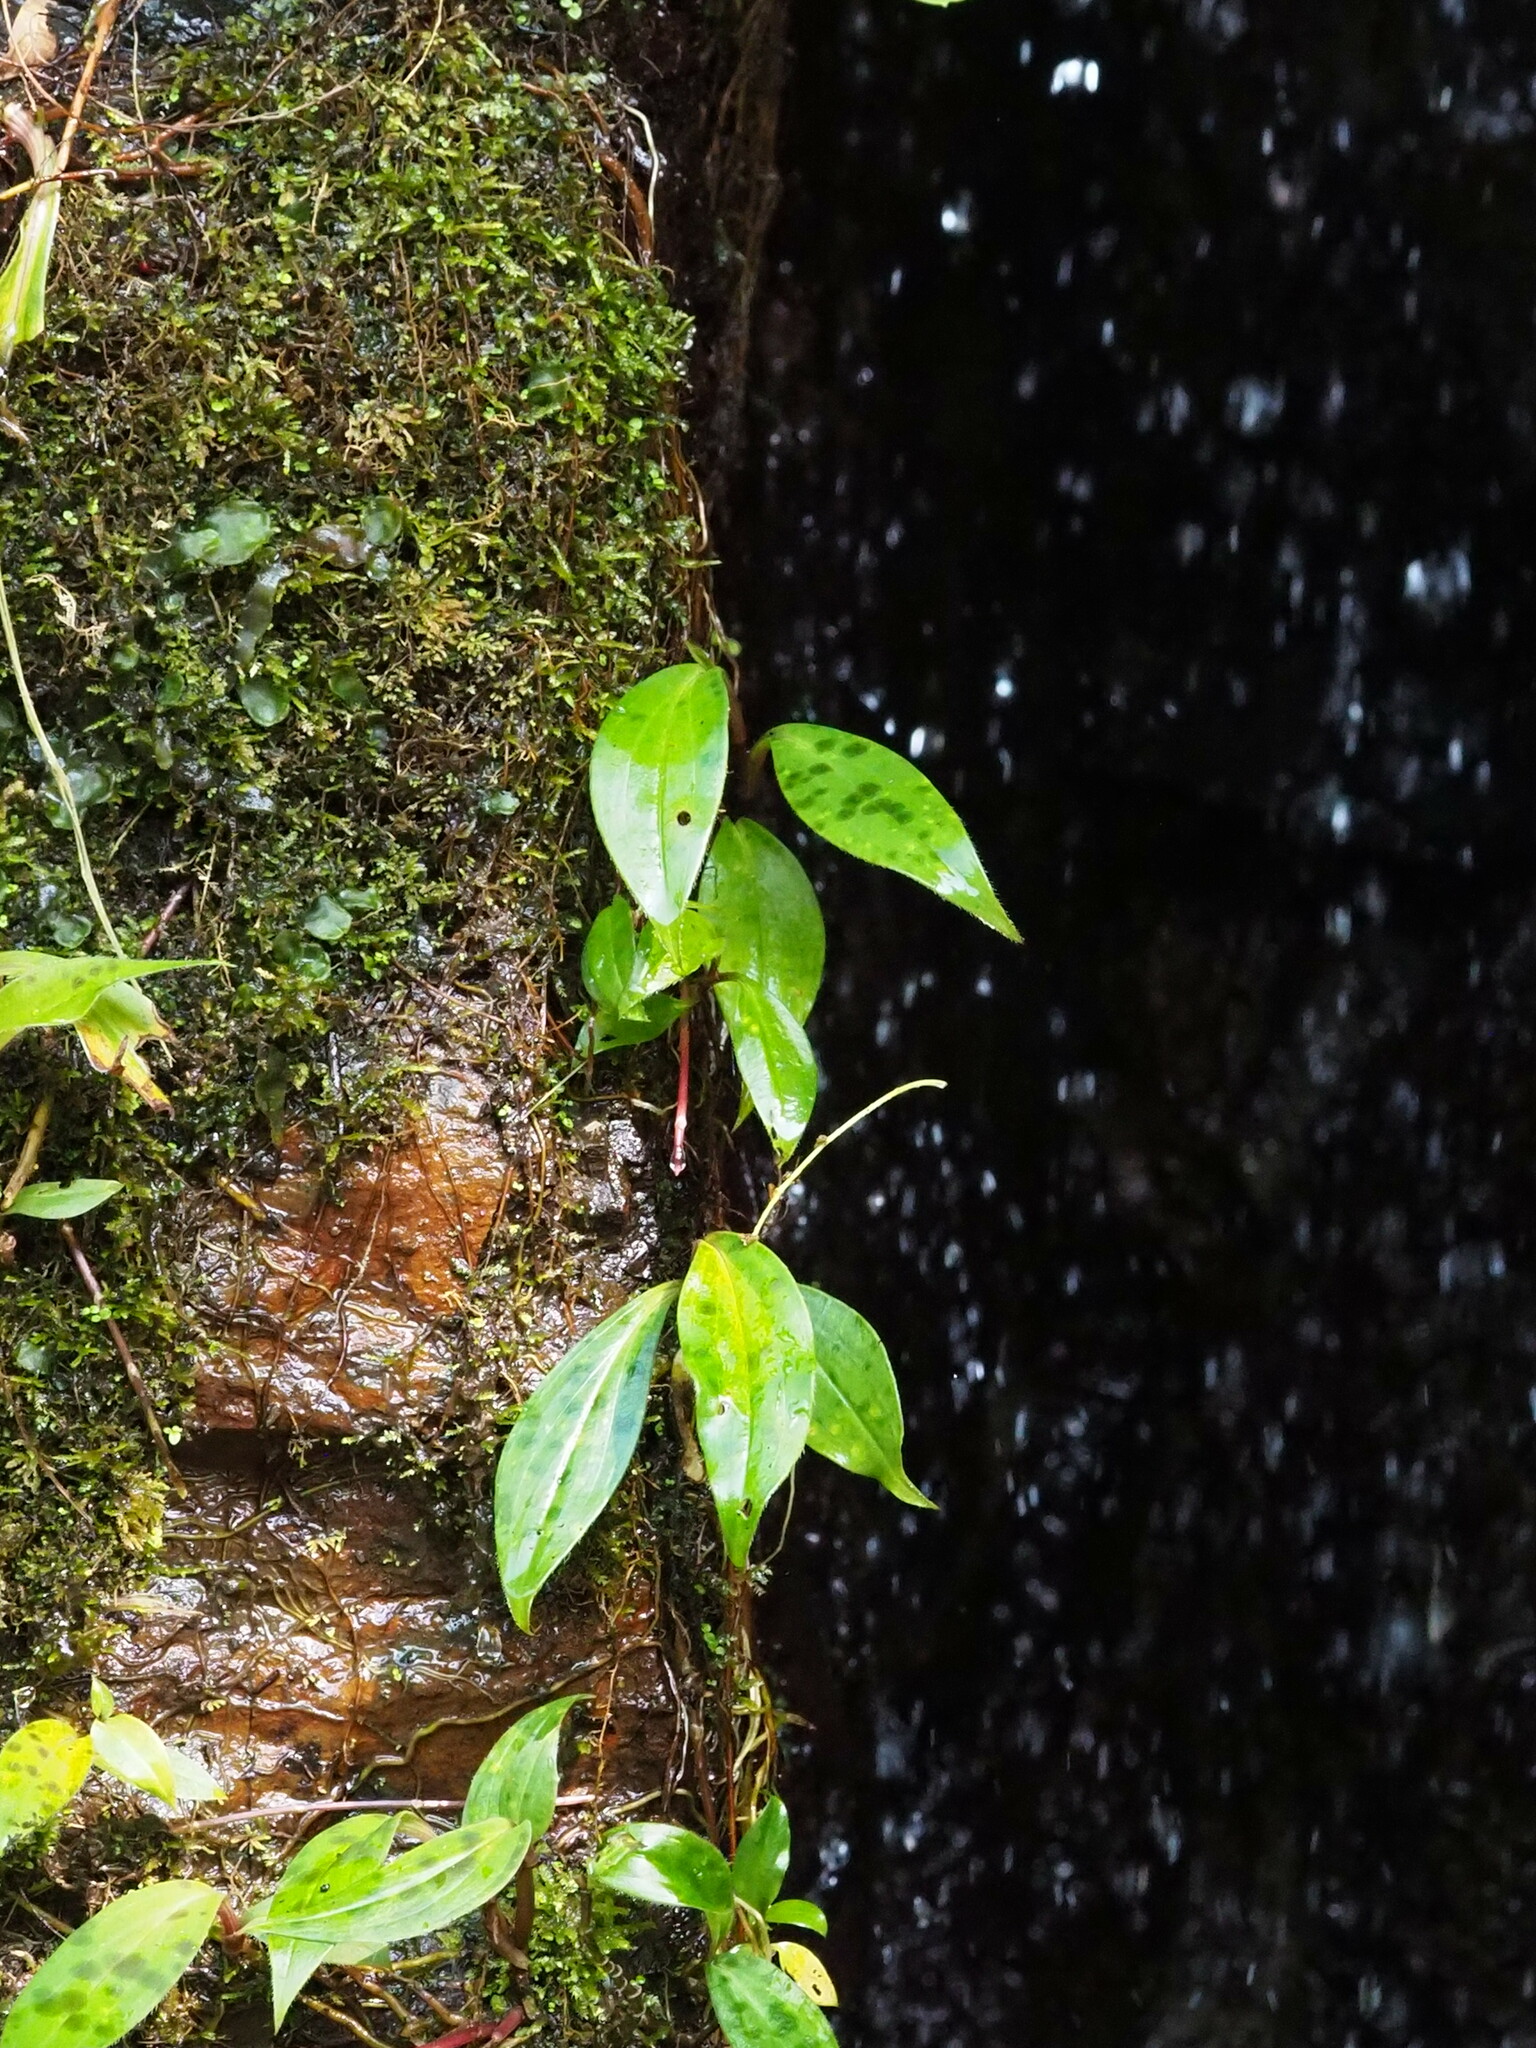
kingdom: Plantae
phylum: Tracheophyta
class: Liliopsida
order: Liliales
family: Liliaceae
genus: Tricyrtis
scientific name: Tricyrtis formosana
